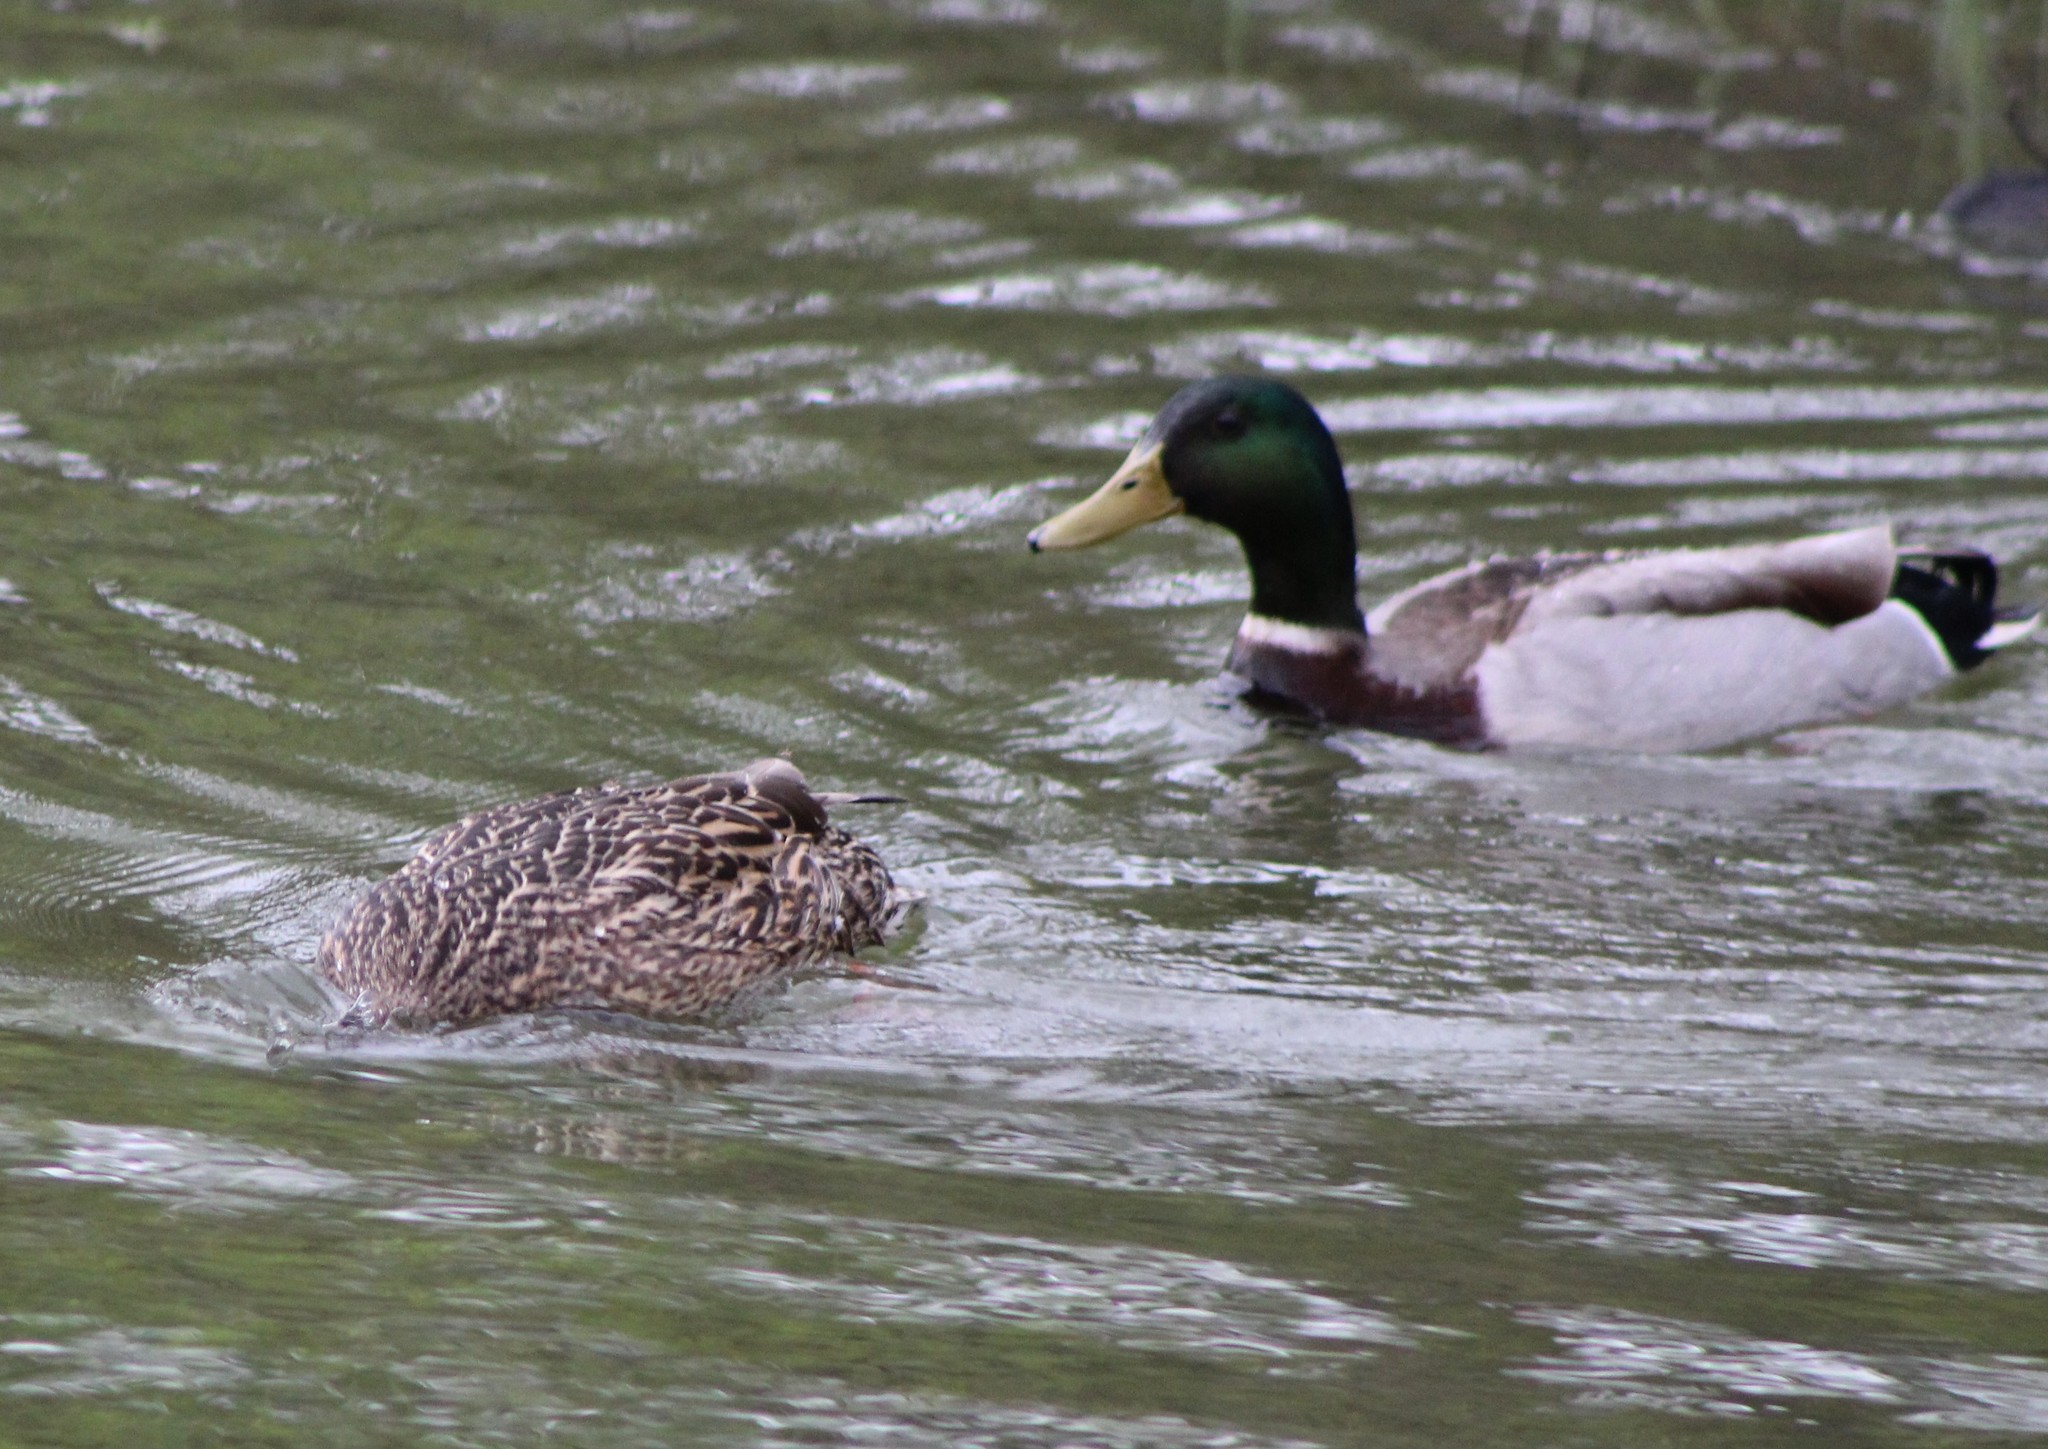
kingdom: Animalia
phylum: Chordata
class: Aves
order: Anseriformes
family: Anatidae
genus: Anas
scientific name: Anas platyrhynchos
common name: Mallard
